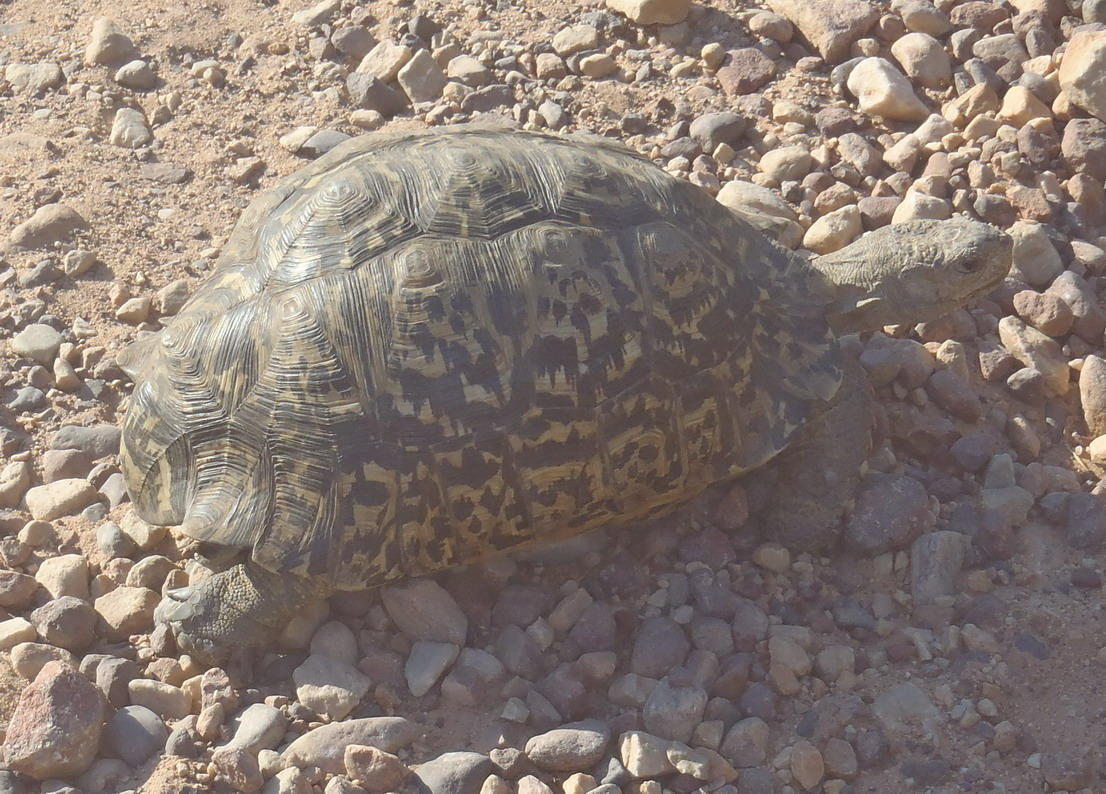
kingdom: Animalia
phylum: Chordata
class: Testudines
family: Testudinidae
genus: Stigmochelys
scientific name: Stigmochelys pardalis
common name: Leopard tortoise
